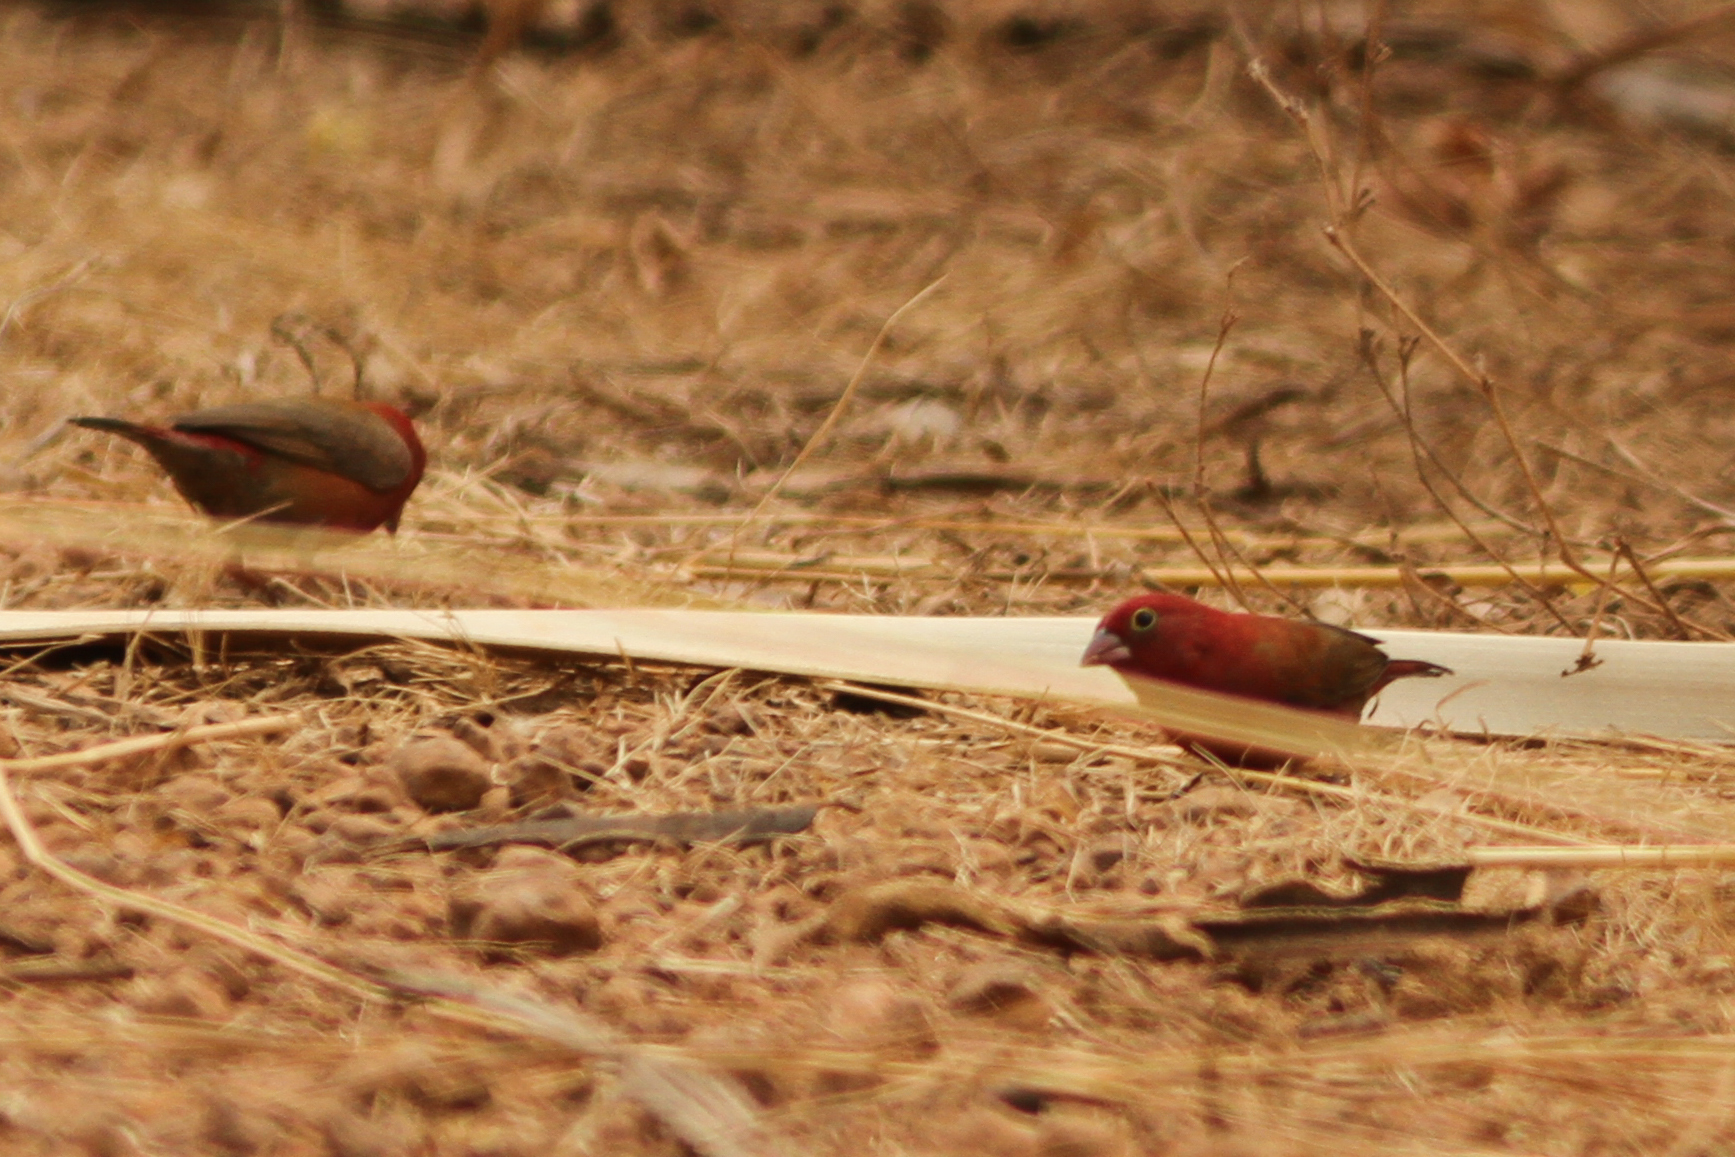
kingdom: Animalia
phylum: Chordata
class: Aves
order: Passeriformes
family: Estrildidae
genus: Lagonosticta
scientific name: Lagonosticta senegala
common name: Red-billed firefinch
